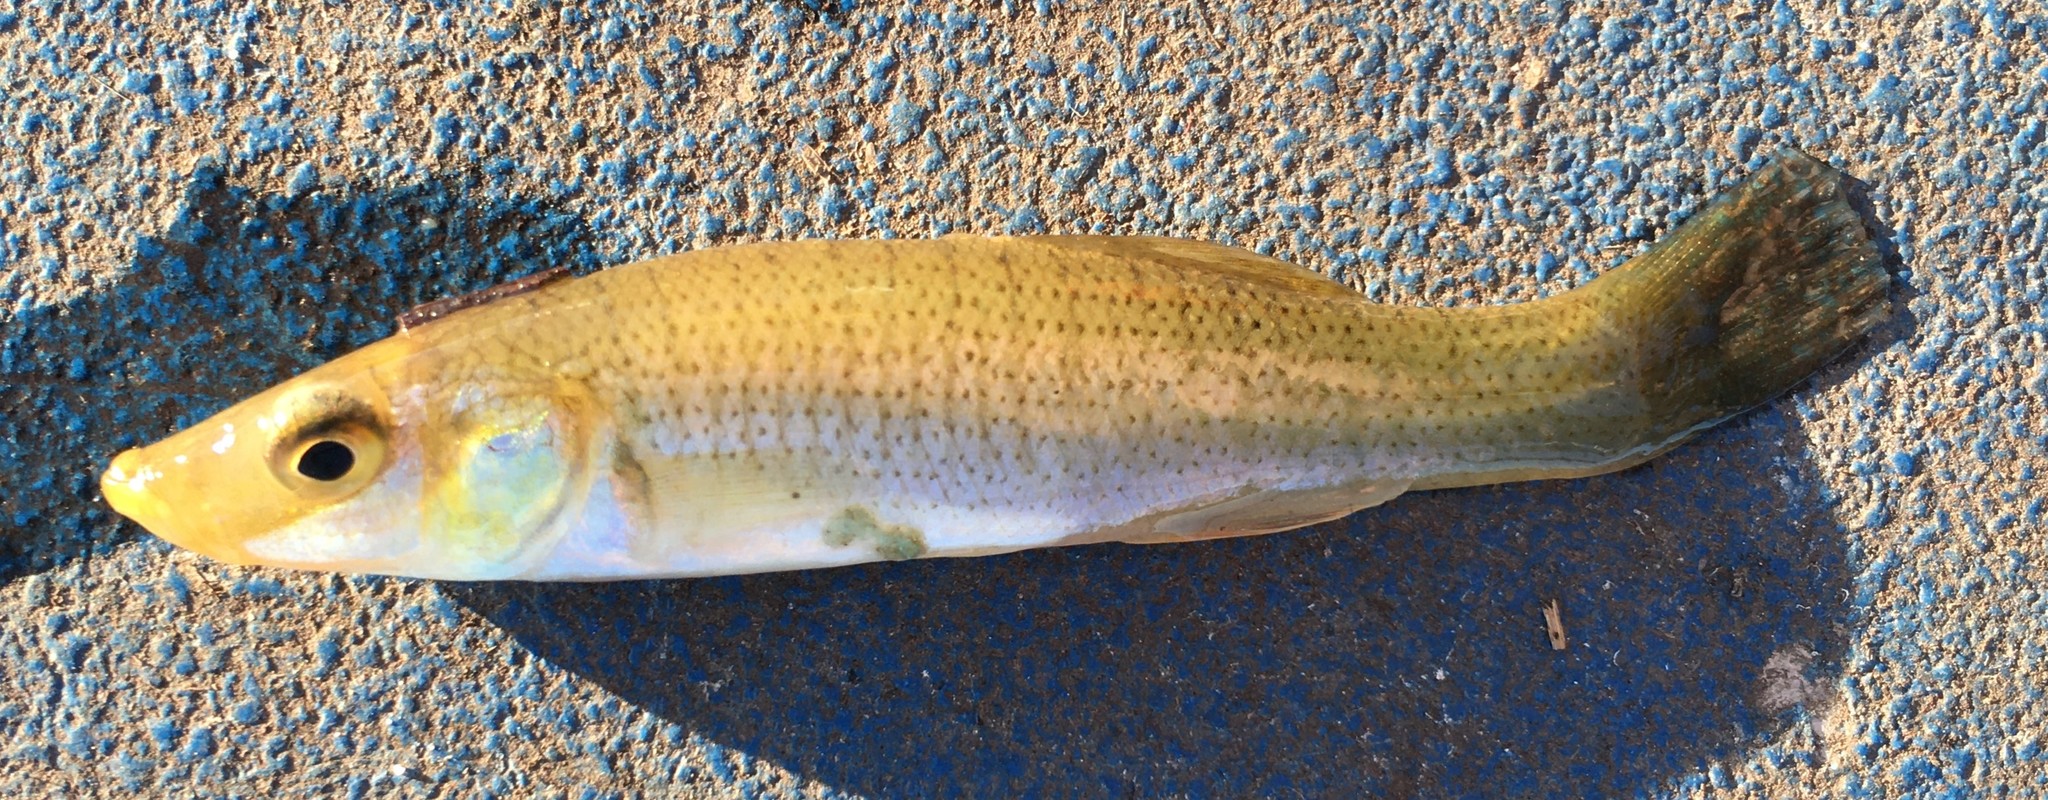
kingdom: Animalia
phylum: Chordata
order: Cyprinodontiformes
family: Fundulidae
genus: Fundulus
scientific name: Fundulus seminolis
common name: Seminole killifish
